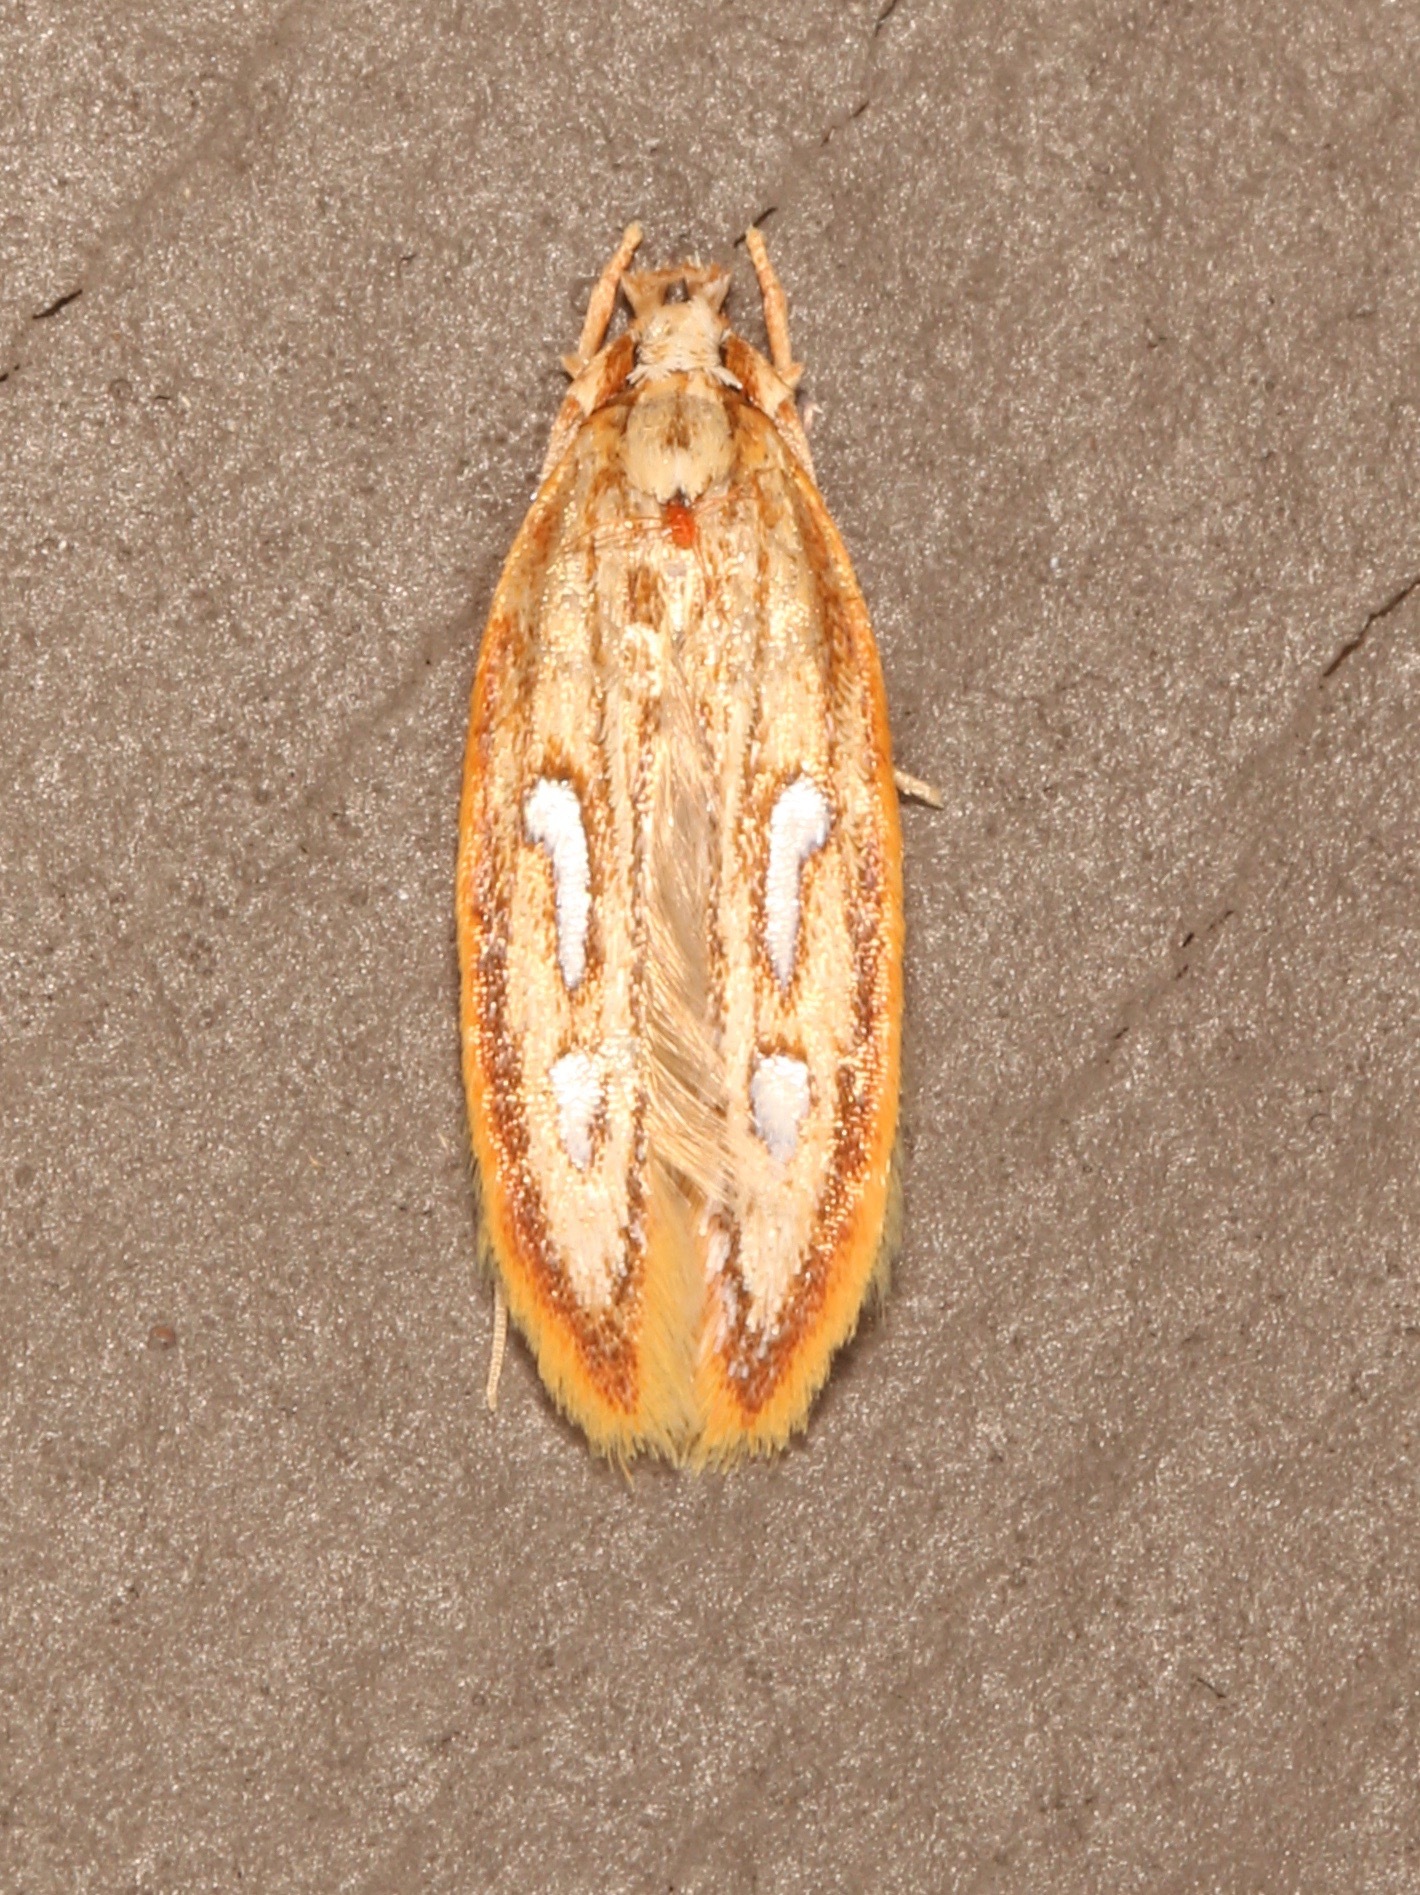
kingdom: Animalia
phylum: Arthropoda
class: Insecta
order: Lepidoptera
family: Coleophoridae
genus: Homaledra
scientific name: Homaledra heptathalama
